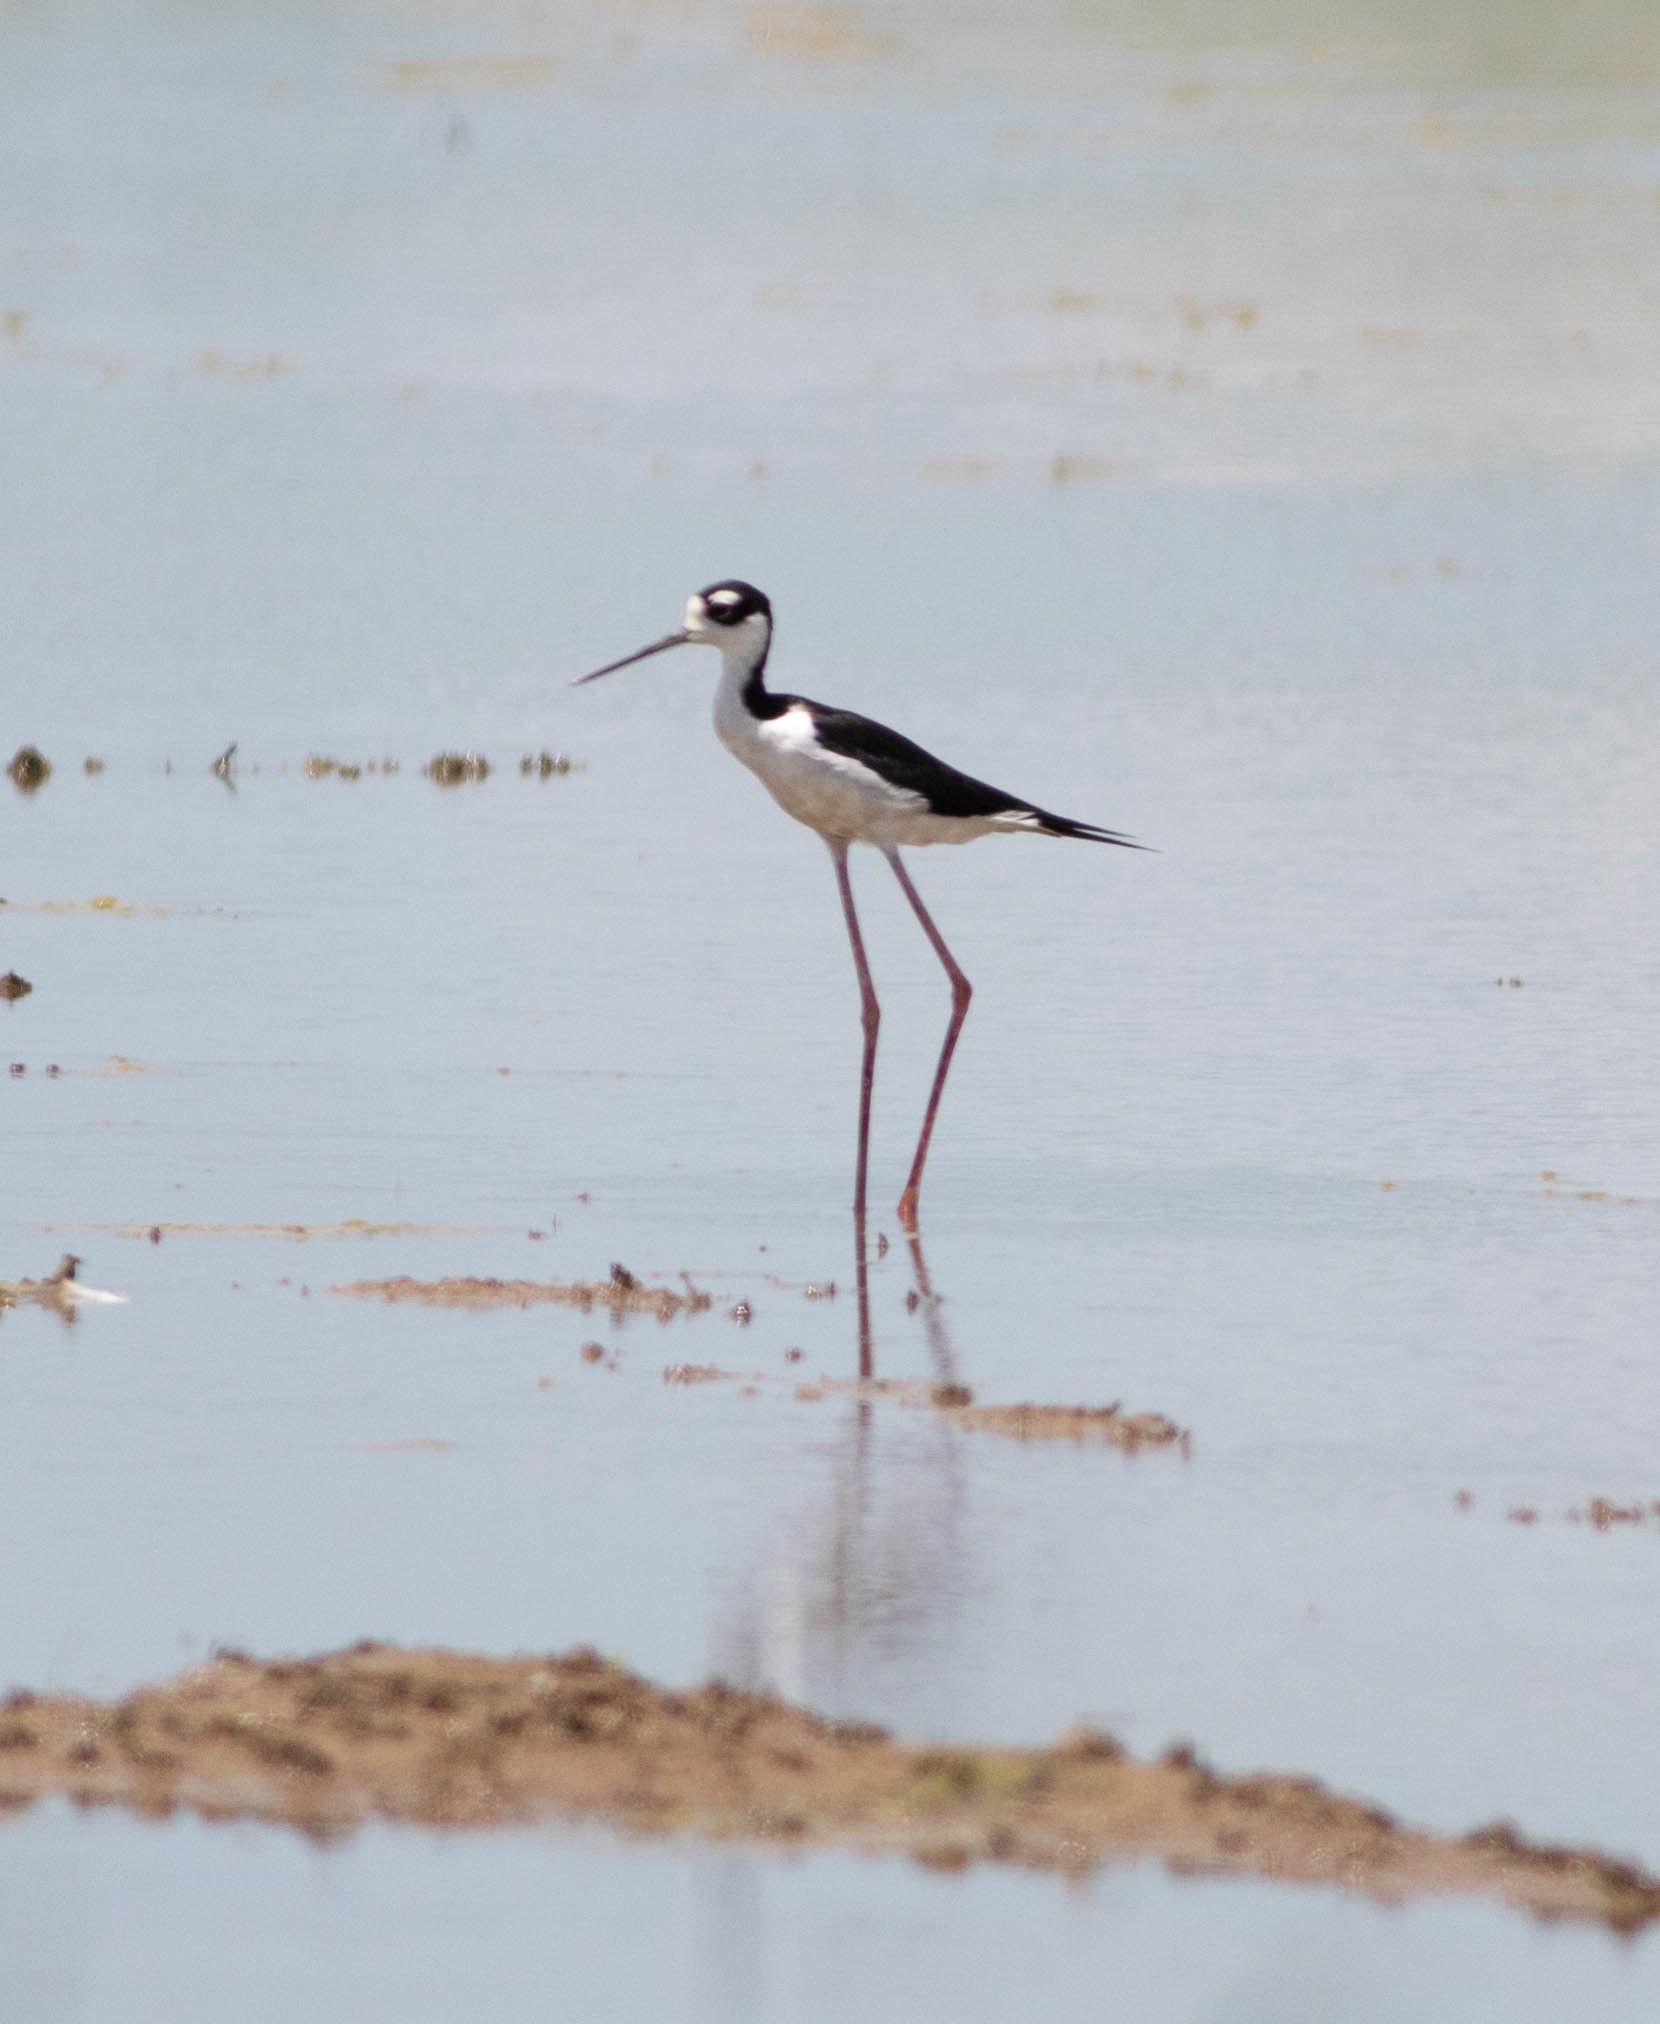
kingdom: Animalia
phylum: Chordata
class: Aves
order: Charadriiformes
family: Recurvirostridae
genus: Himantopus
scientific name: Himantopus mexicanus
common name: Black-necked stilt
